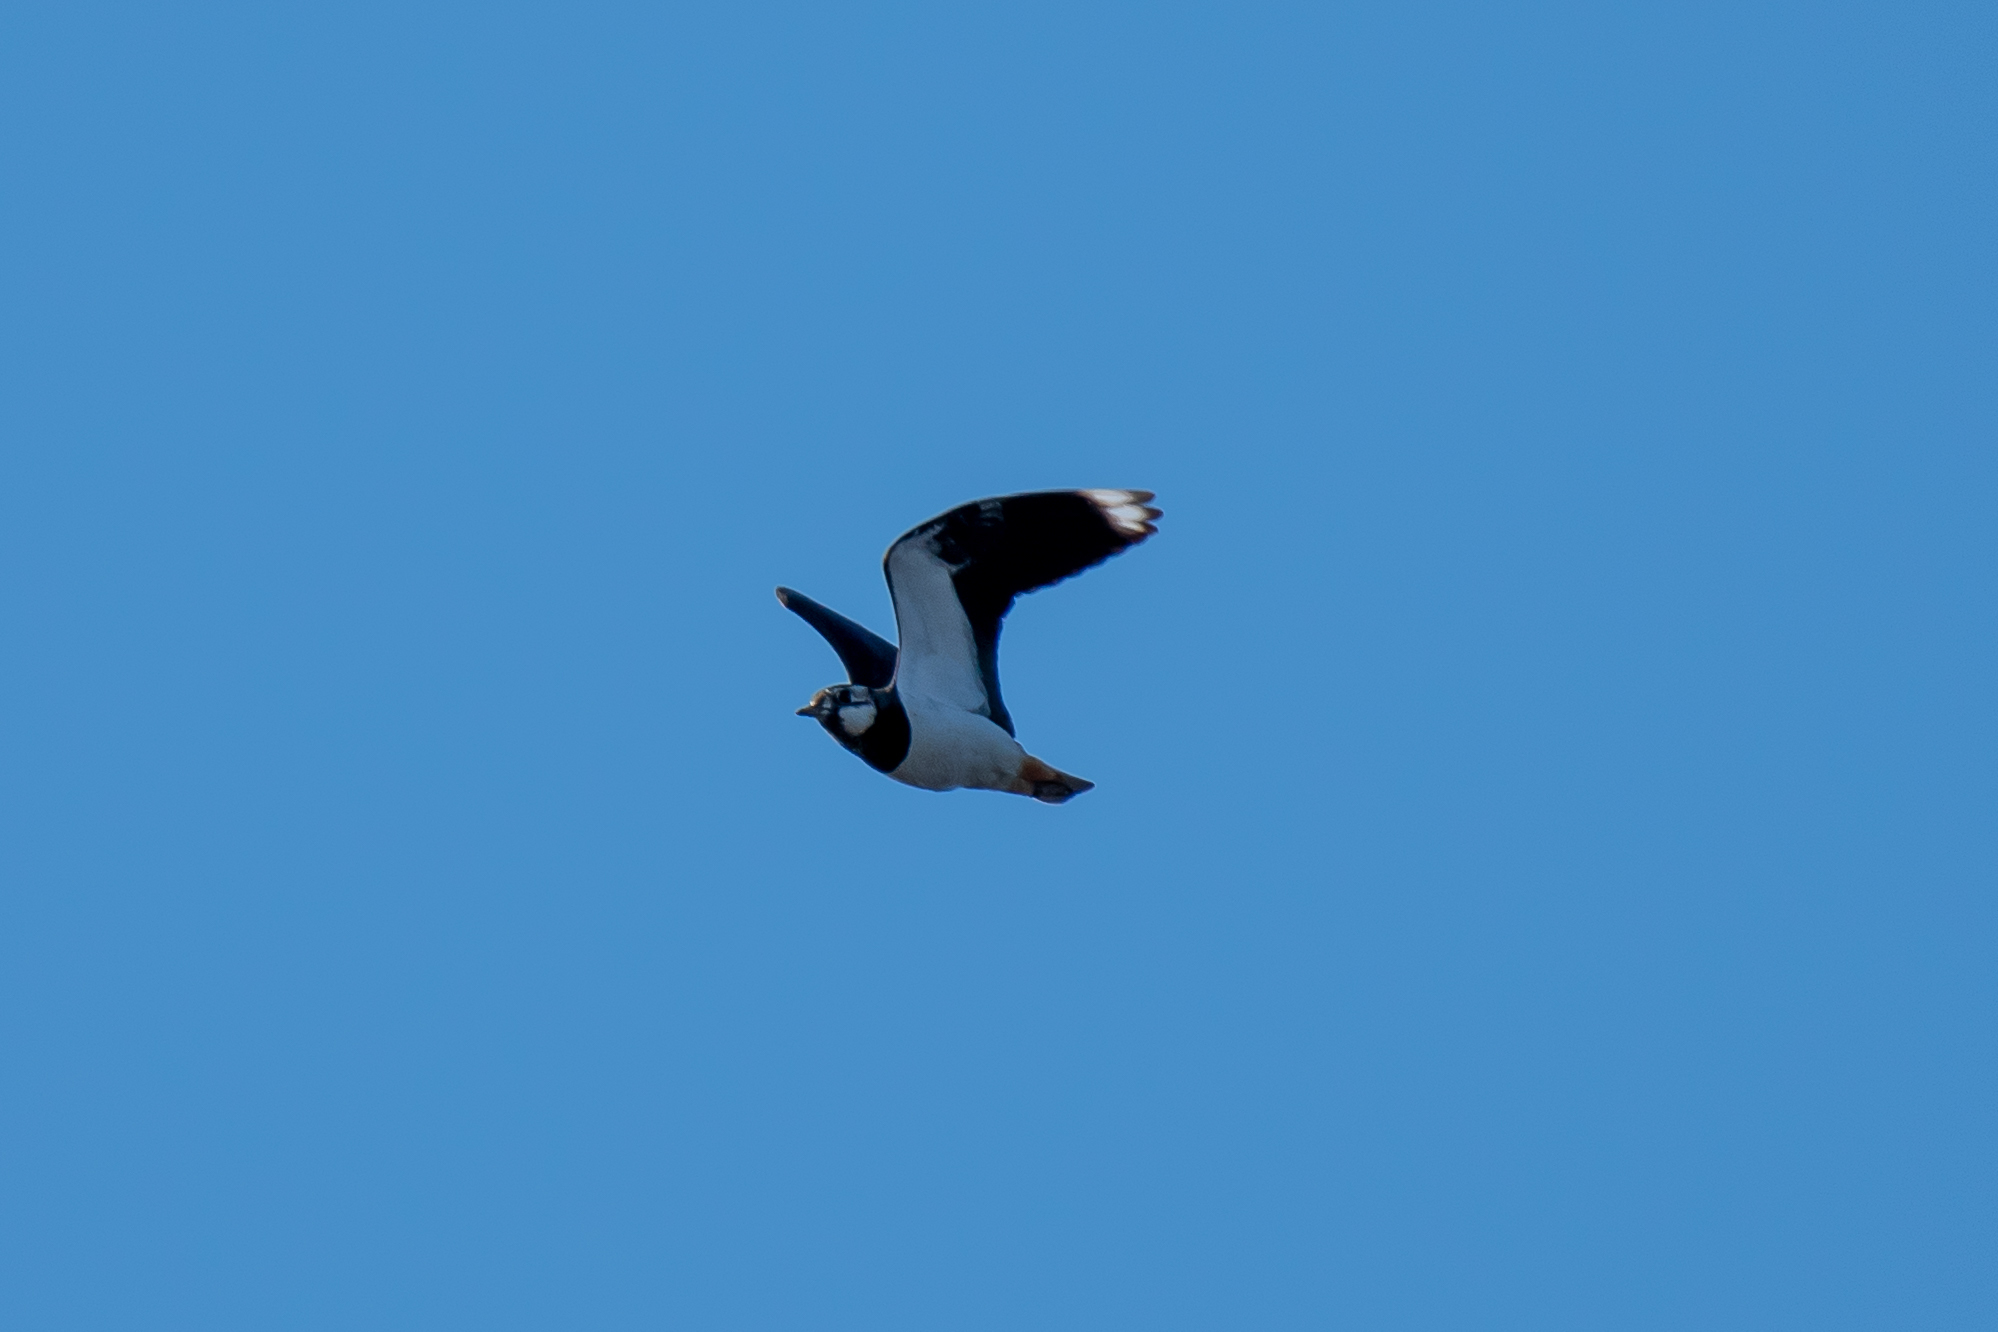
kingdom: Animalia
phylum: Chordata
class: Aves
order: Charadriiformes
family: Charadriidae
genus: Vanellus
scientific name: Vanellus vanellus
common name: Northern lapwing
